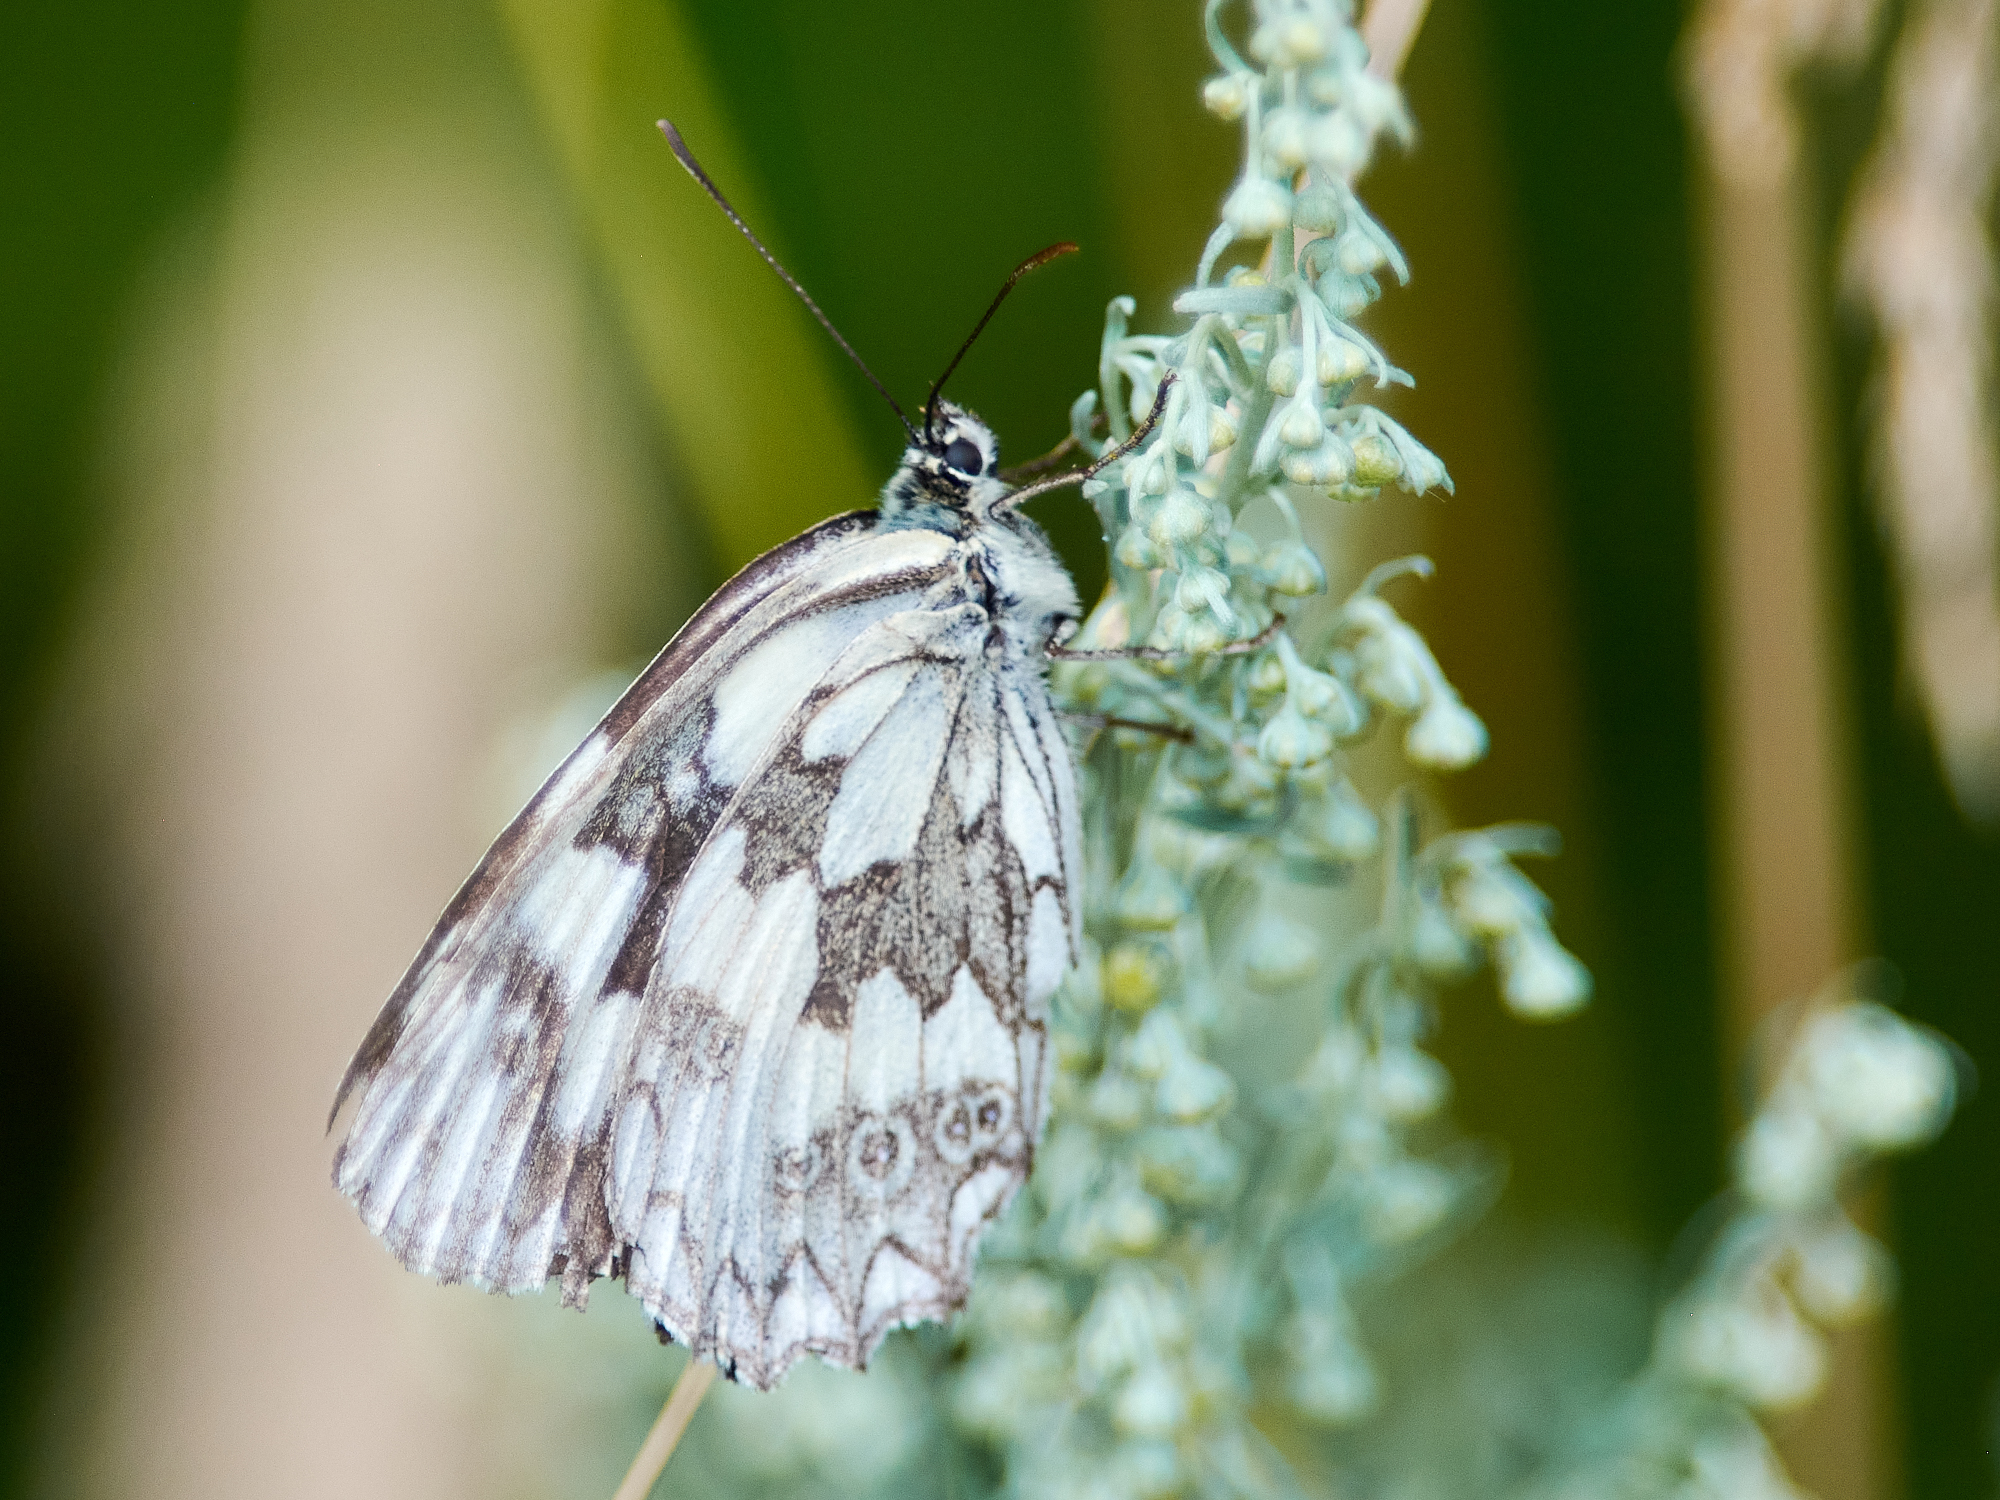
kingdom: Animalia
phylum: Arthropoda
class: Insecta
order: Lepidoptera
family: Nymphalidae
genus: Melanargia
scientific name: Melanargia galathea
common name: Marbled white
